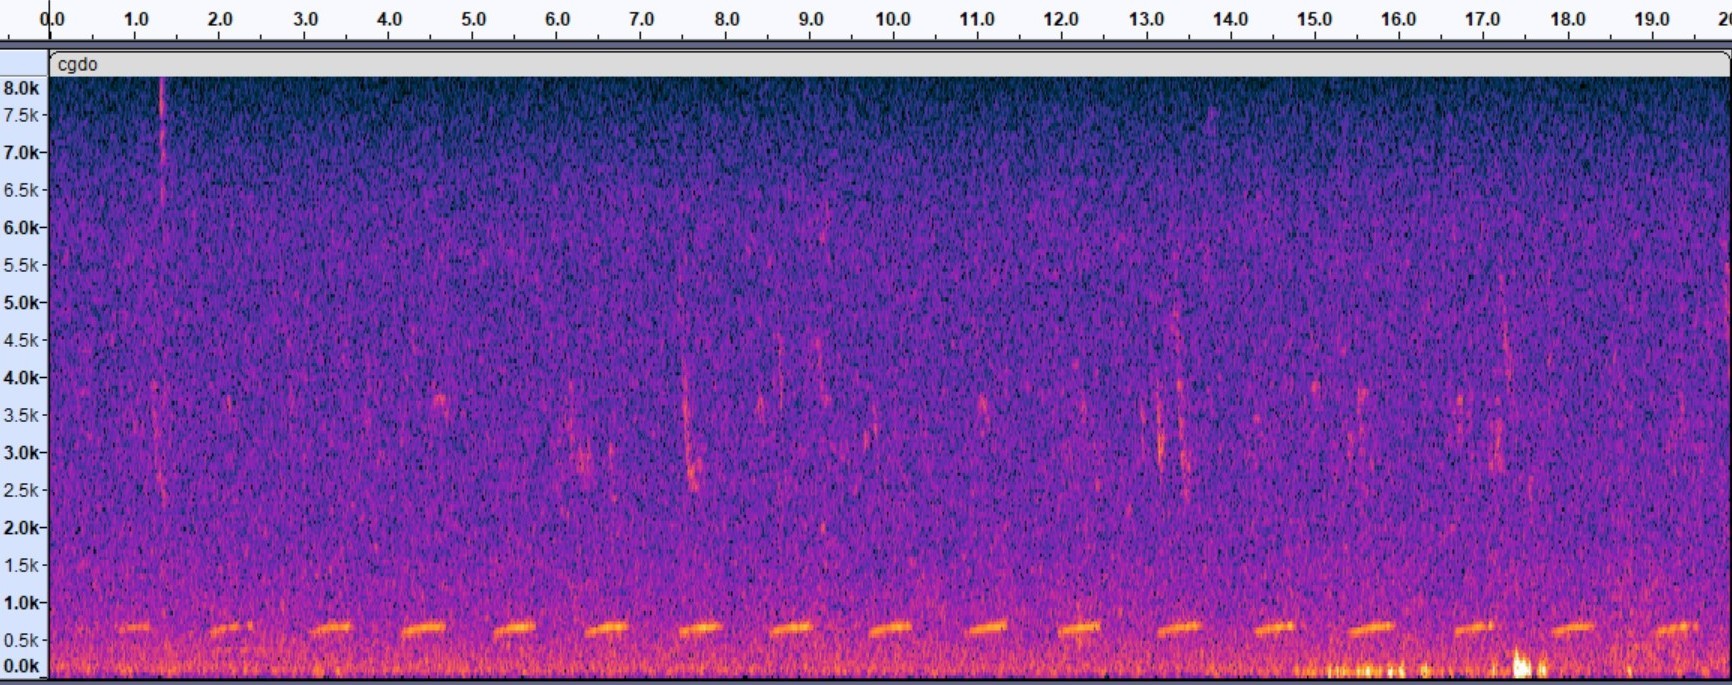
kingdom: Animalia
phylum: Chordata
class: Aves
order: Columbiformes
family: Columbidae
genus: Columbina
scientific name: Columbina passerina
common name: Common ground-dove
